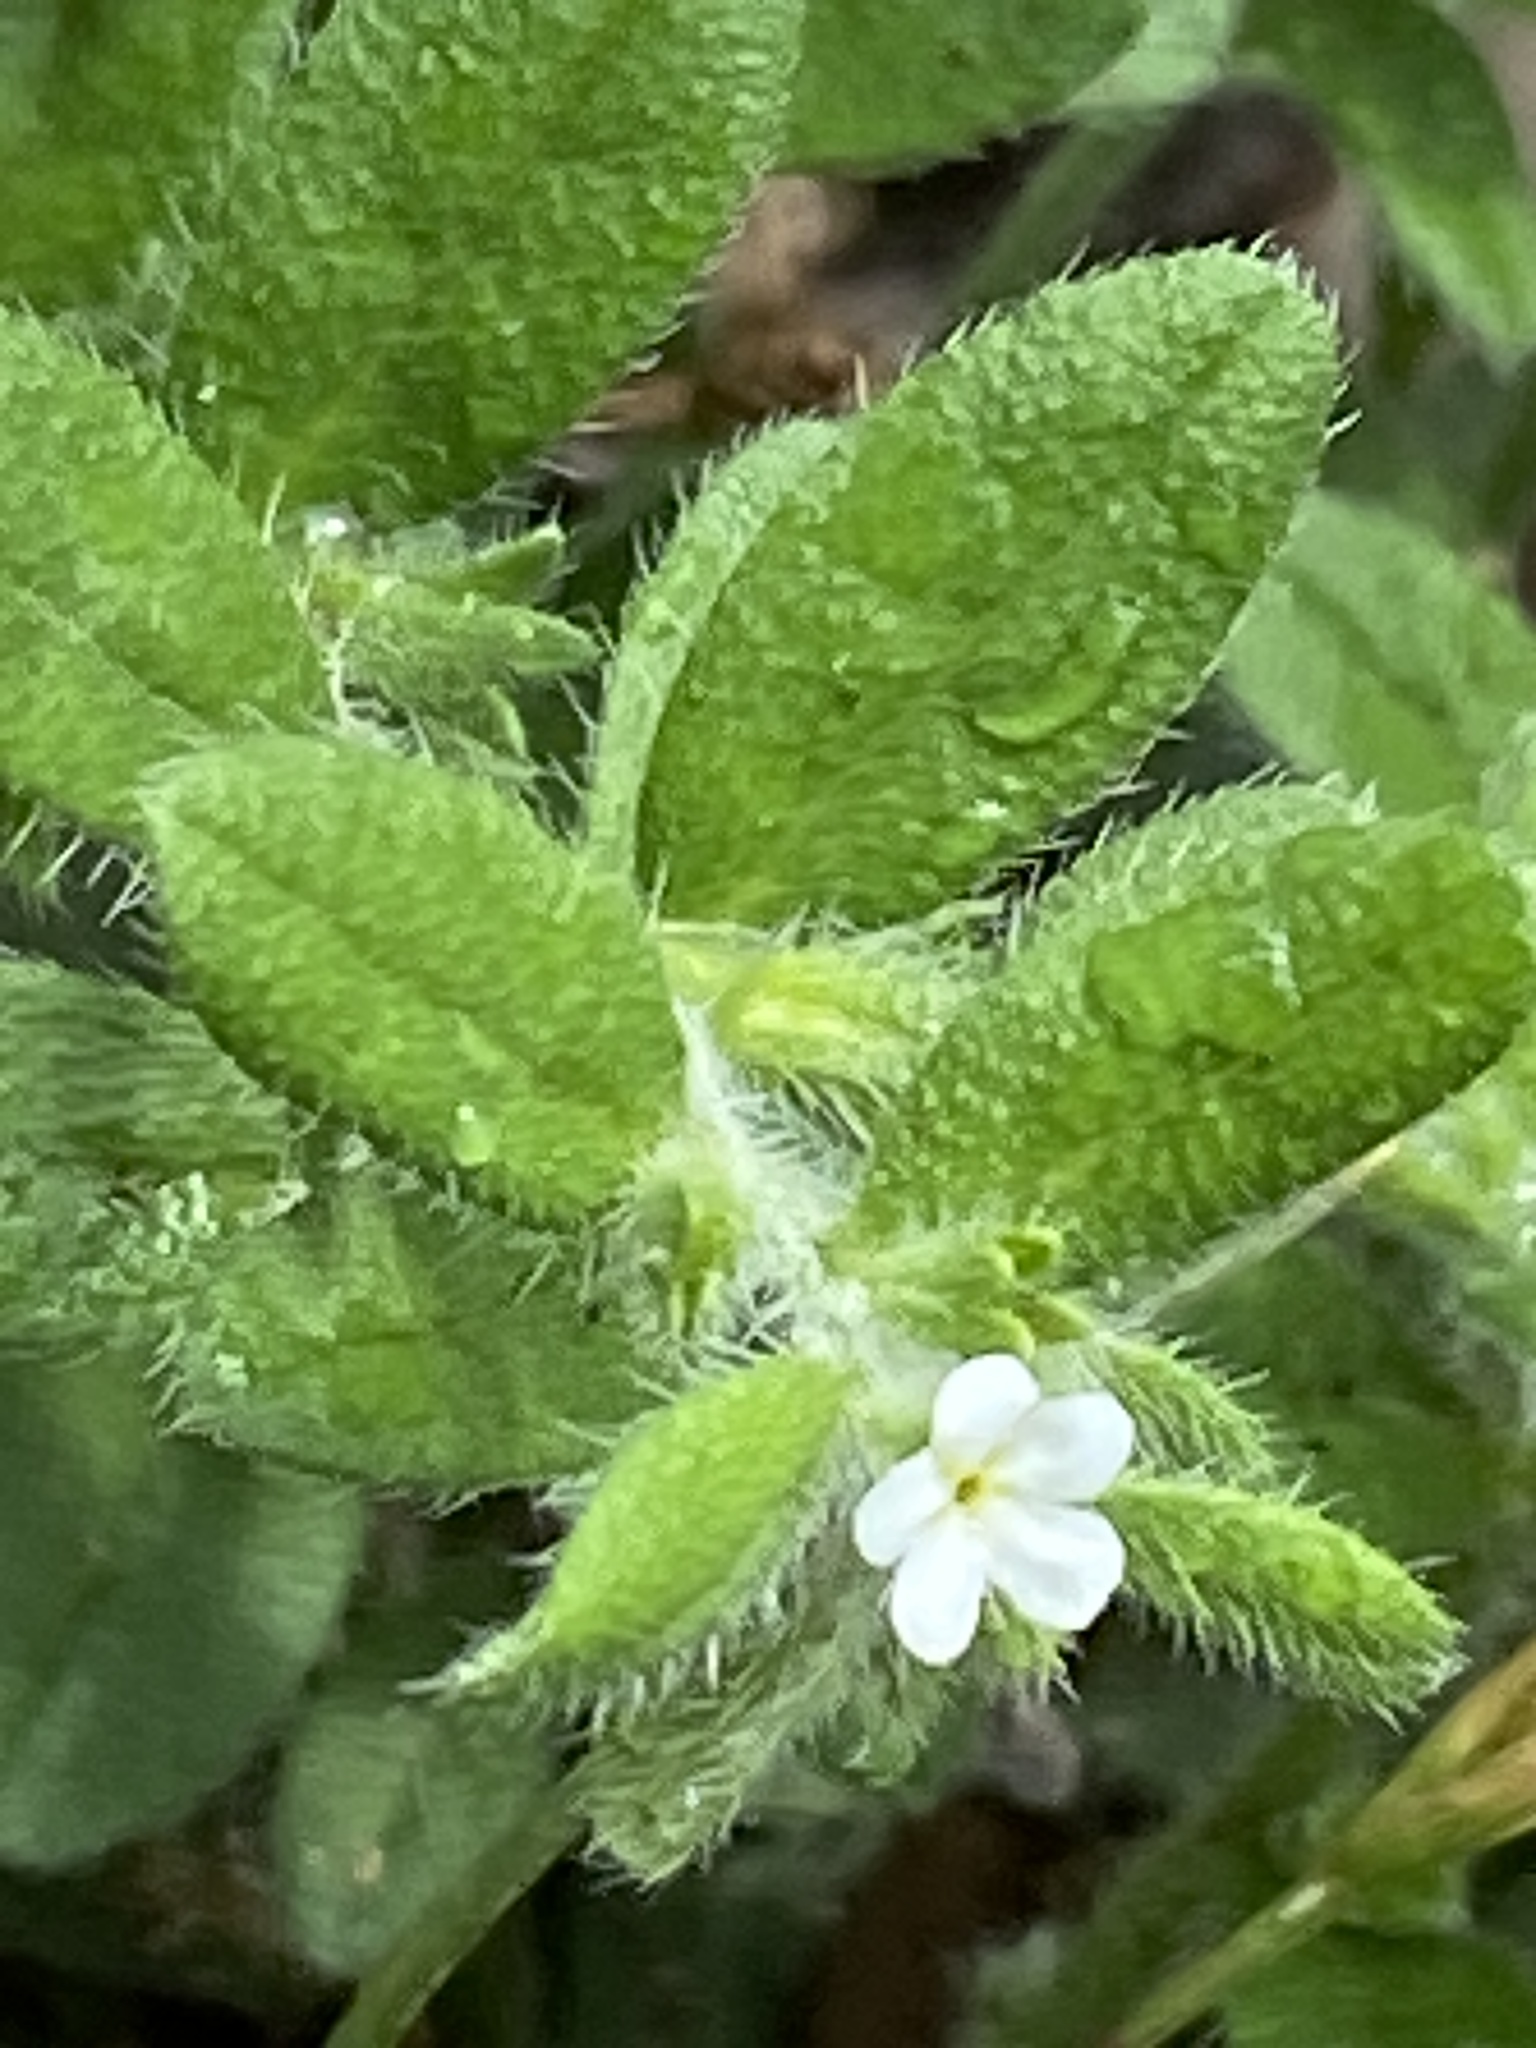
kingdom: Plantae
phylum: Tracheophyta
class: Magnoliopsida
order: Boraginales
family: Boraginaceae
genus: Lithospermum
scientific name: Lithospermum matamorense
